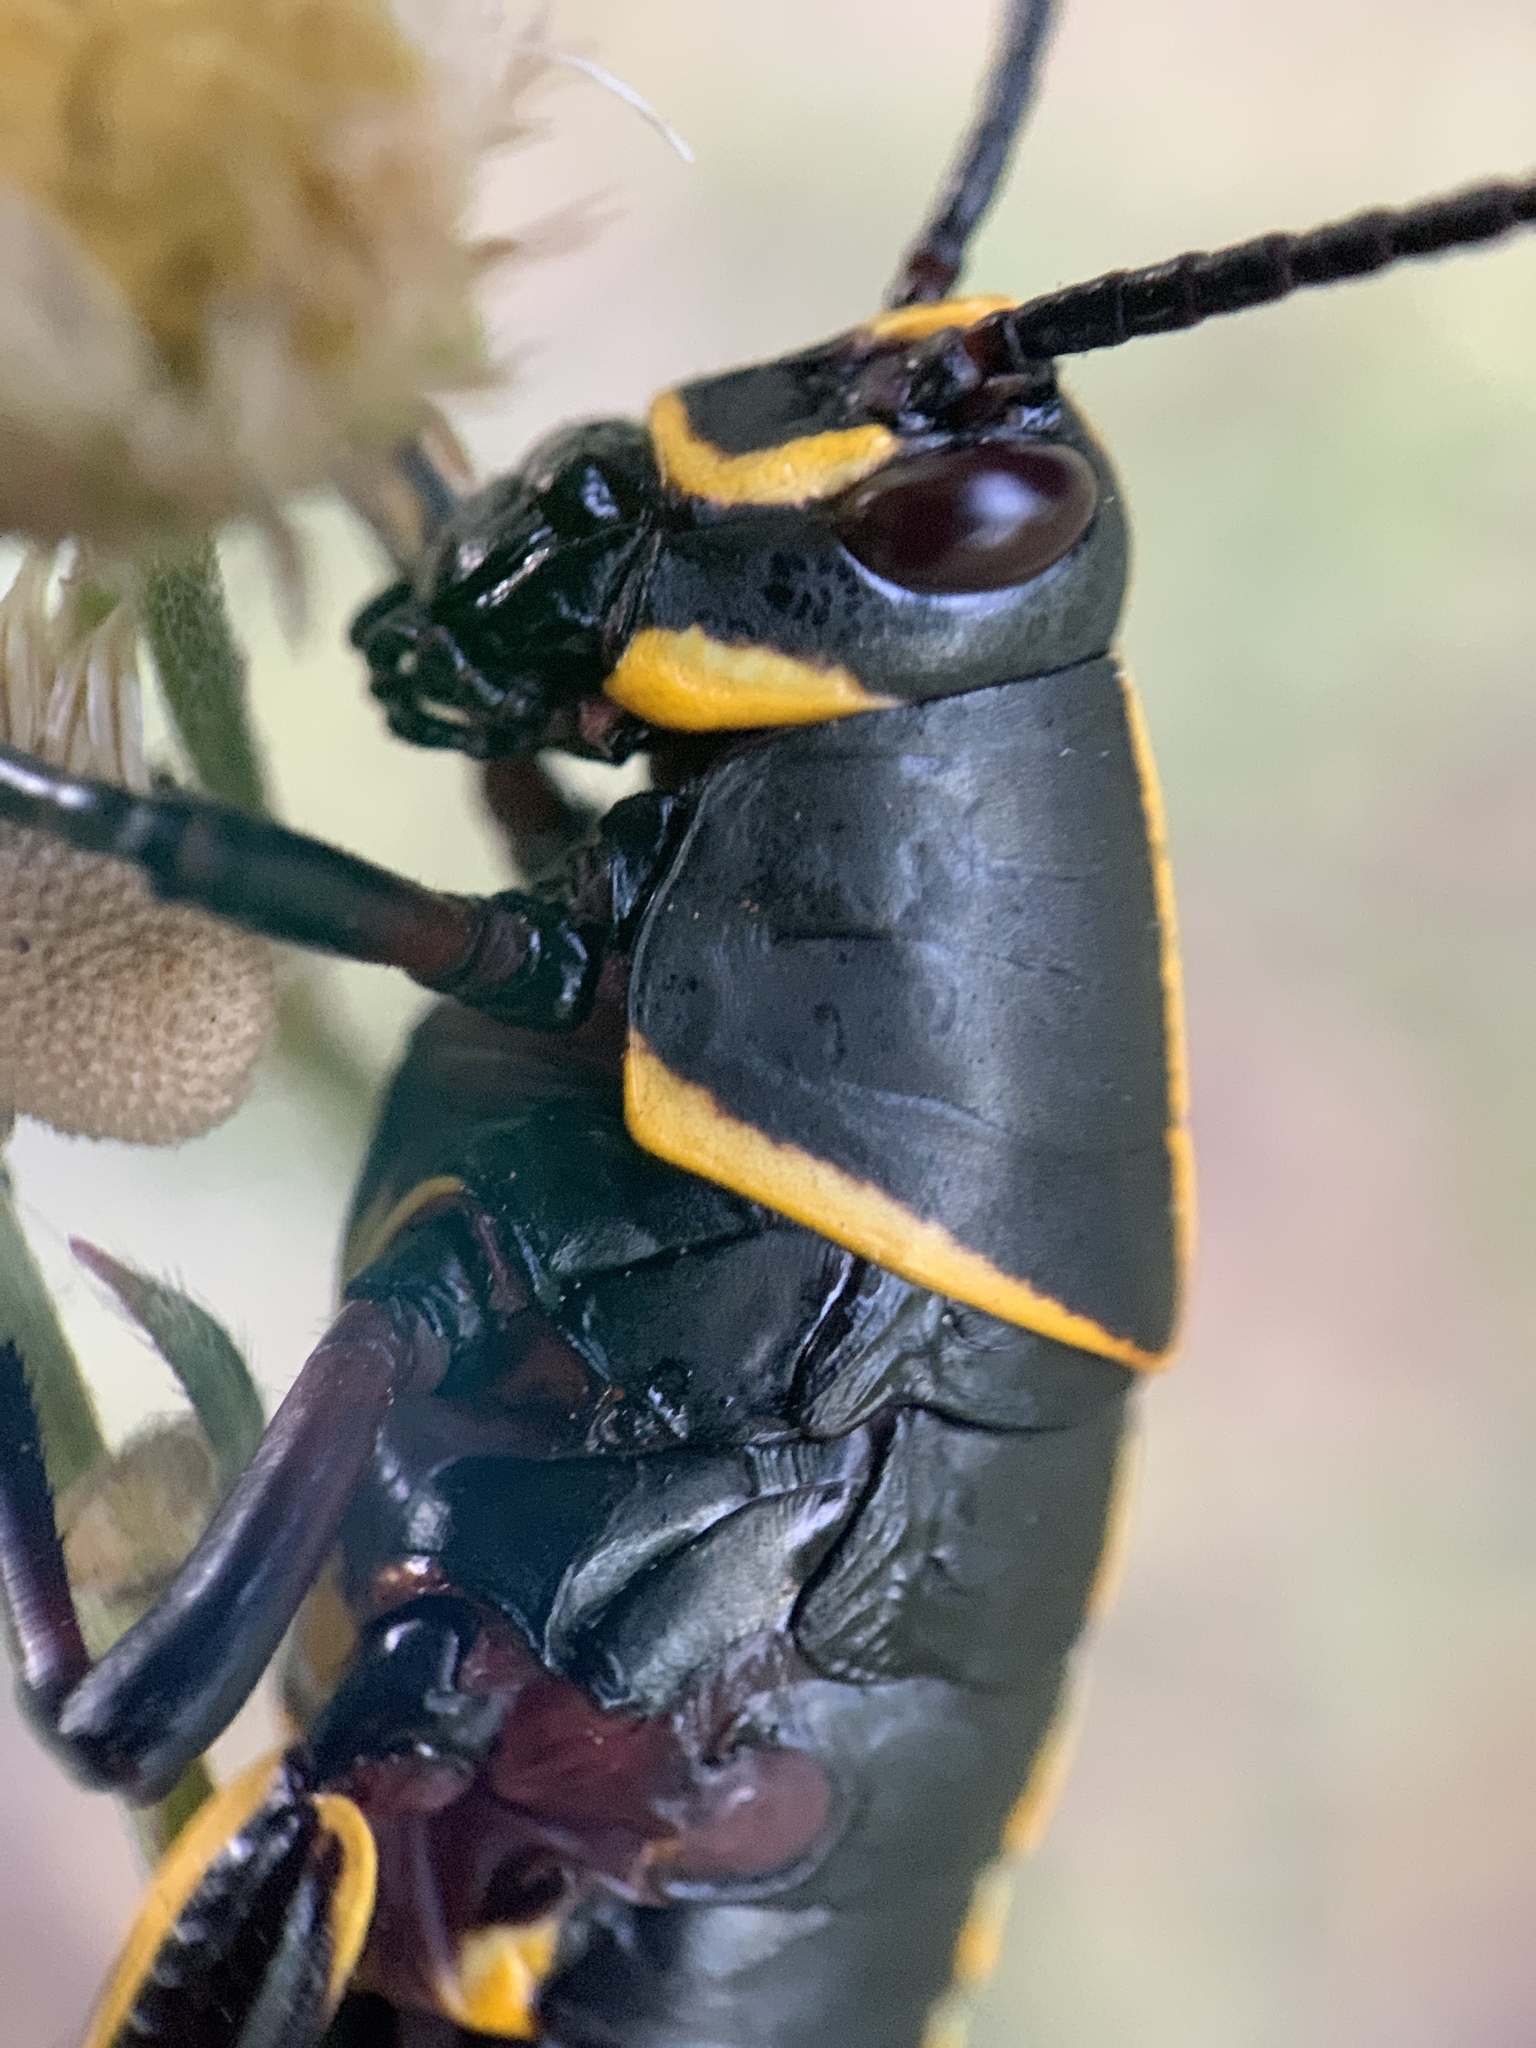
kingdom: Animalia
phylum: Arthropoda
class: Insecta
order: Orthoptera
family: Romaleidae
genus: Romalea
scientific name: Romalea microptera
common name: Eastern lubber grasshopper
